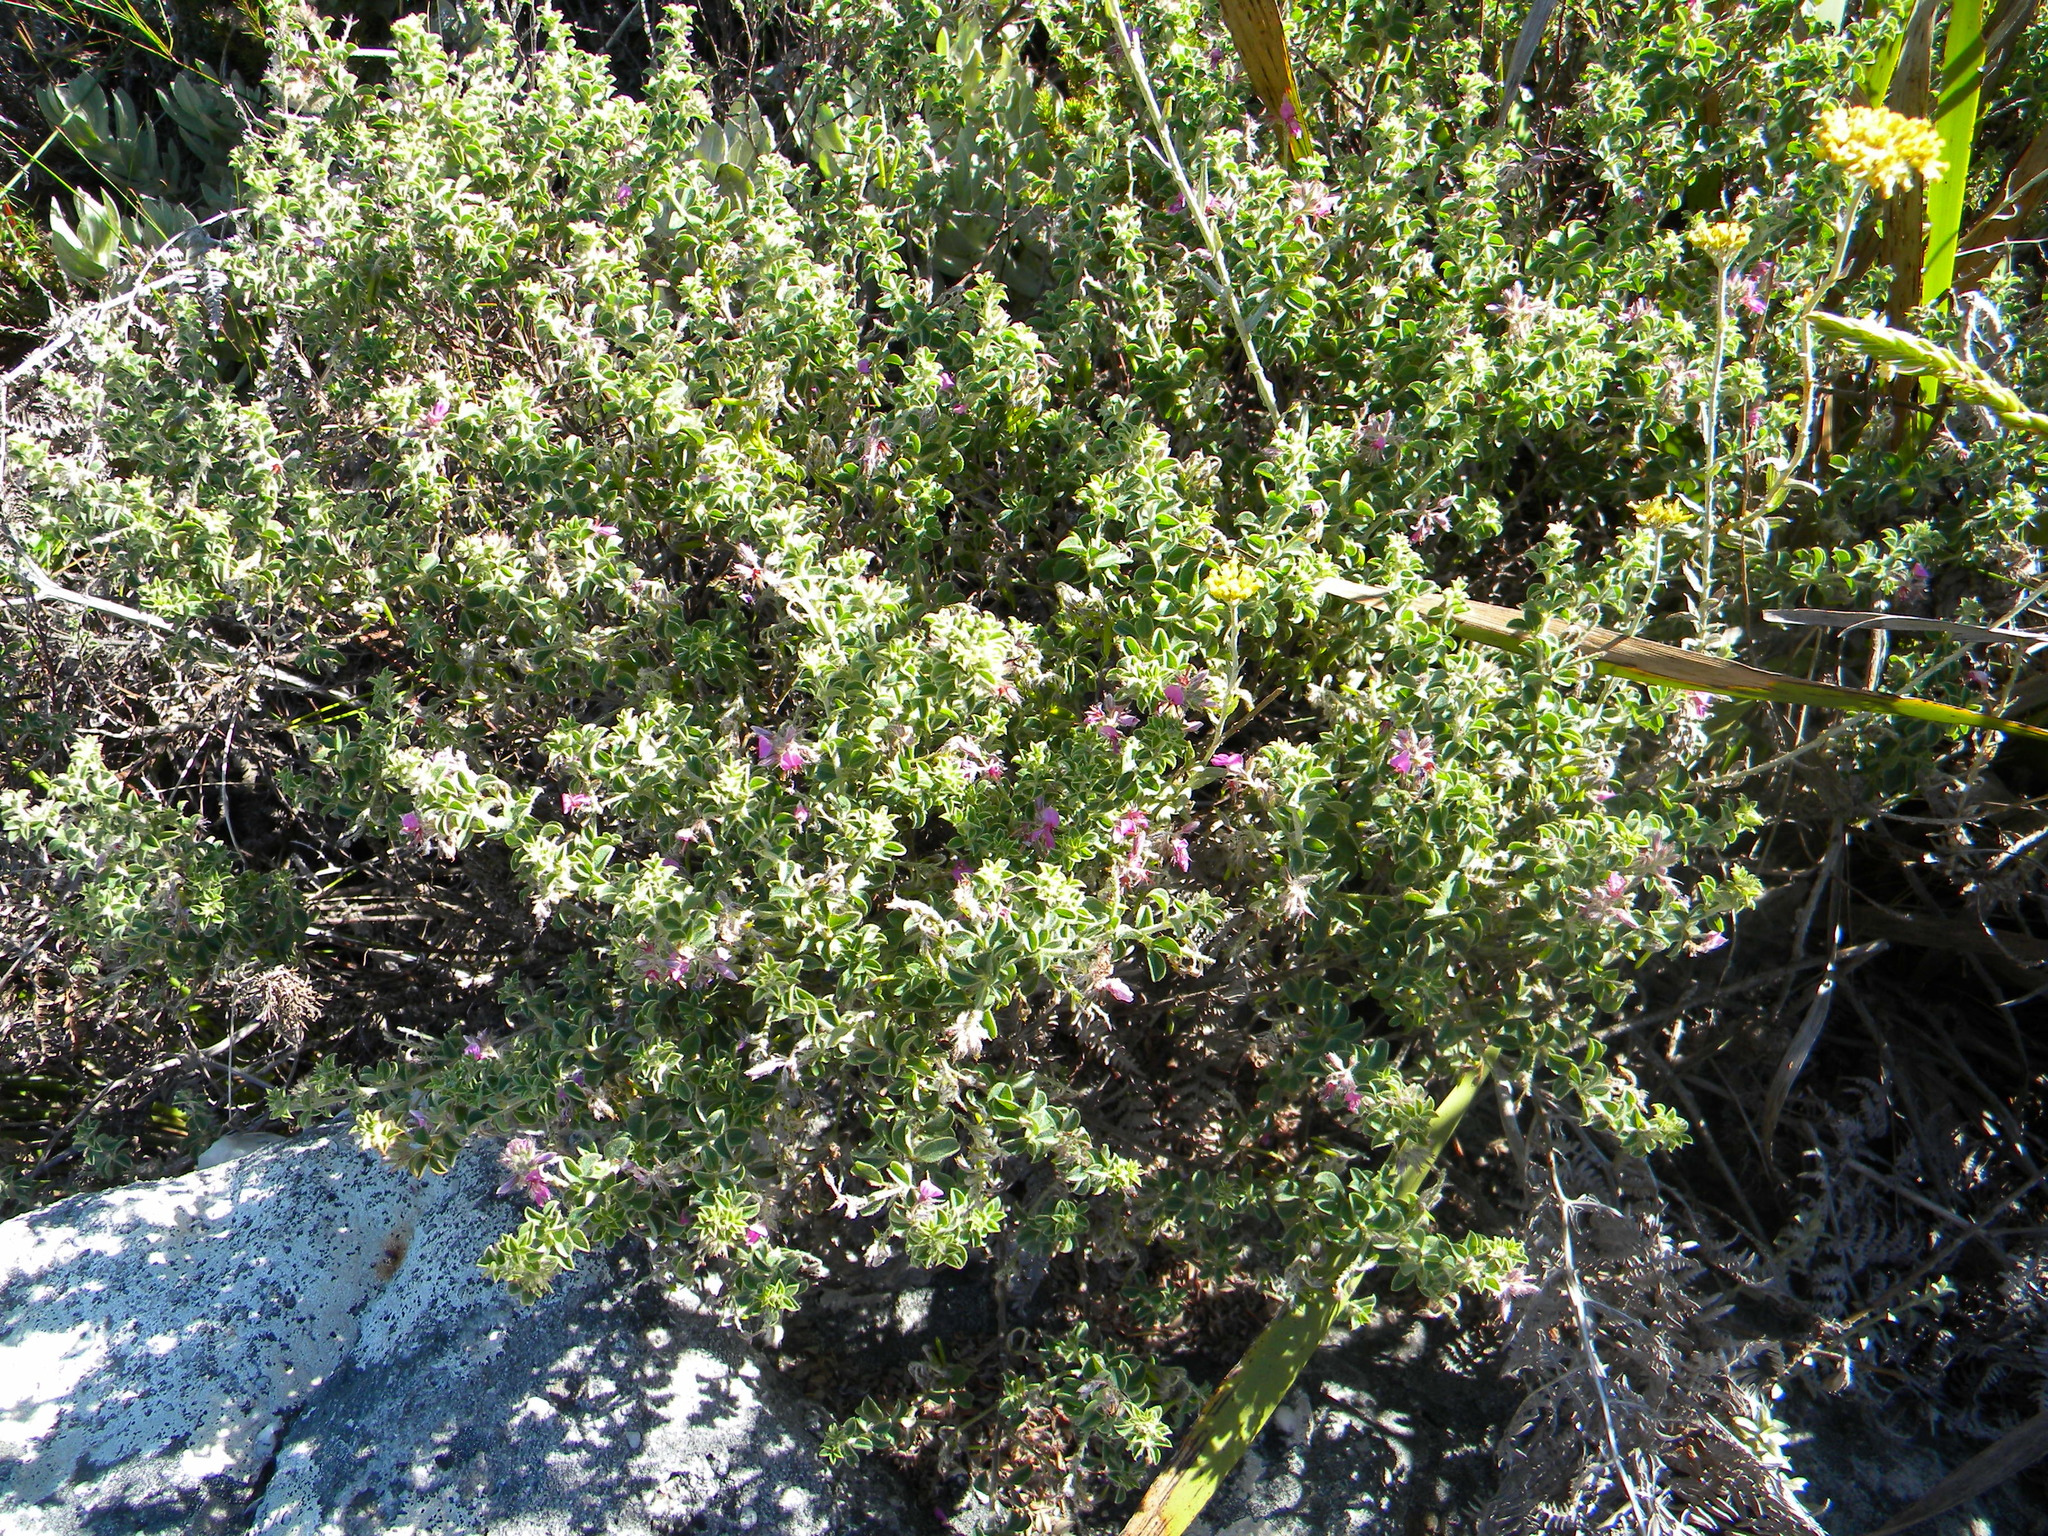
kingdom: Plantae
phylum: Tracheophyta
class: Magnoliopsida
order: Fabales
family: Fabaceae
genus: Indigofera
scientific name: Indigofera candolleana
